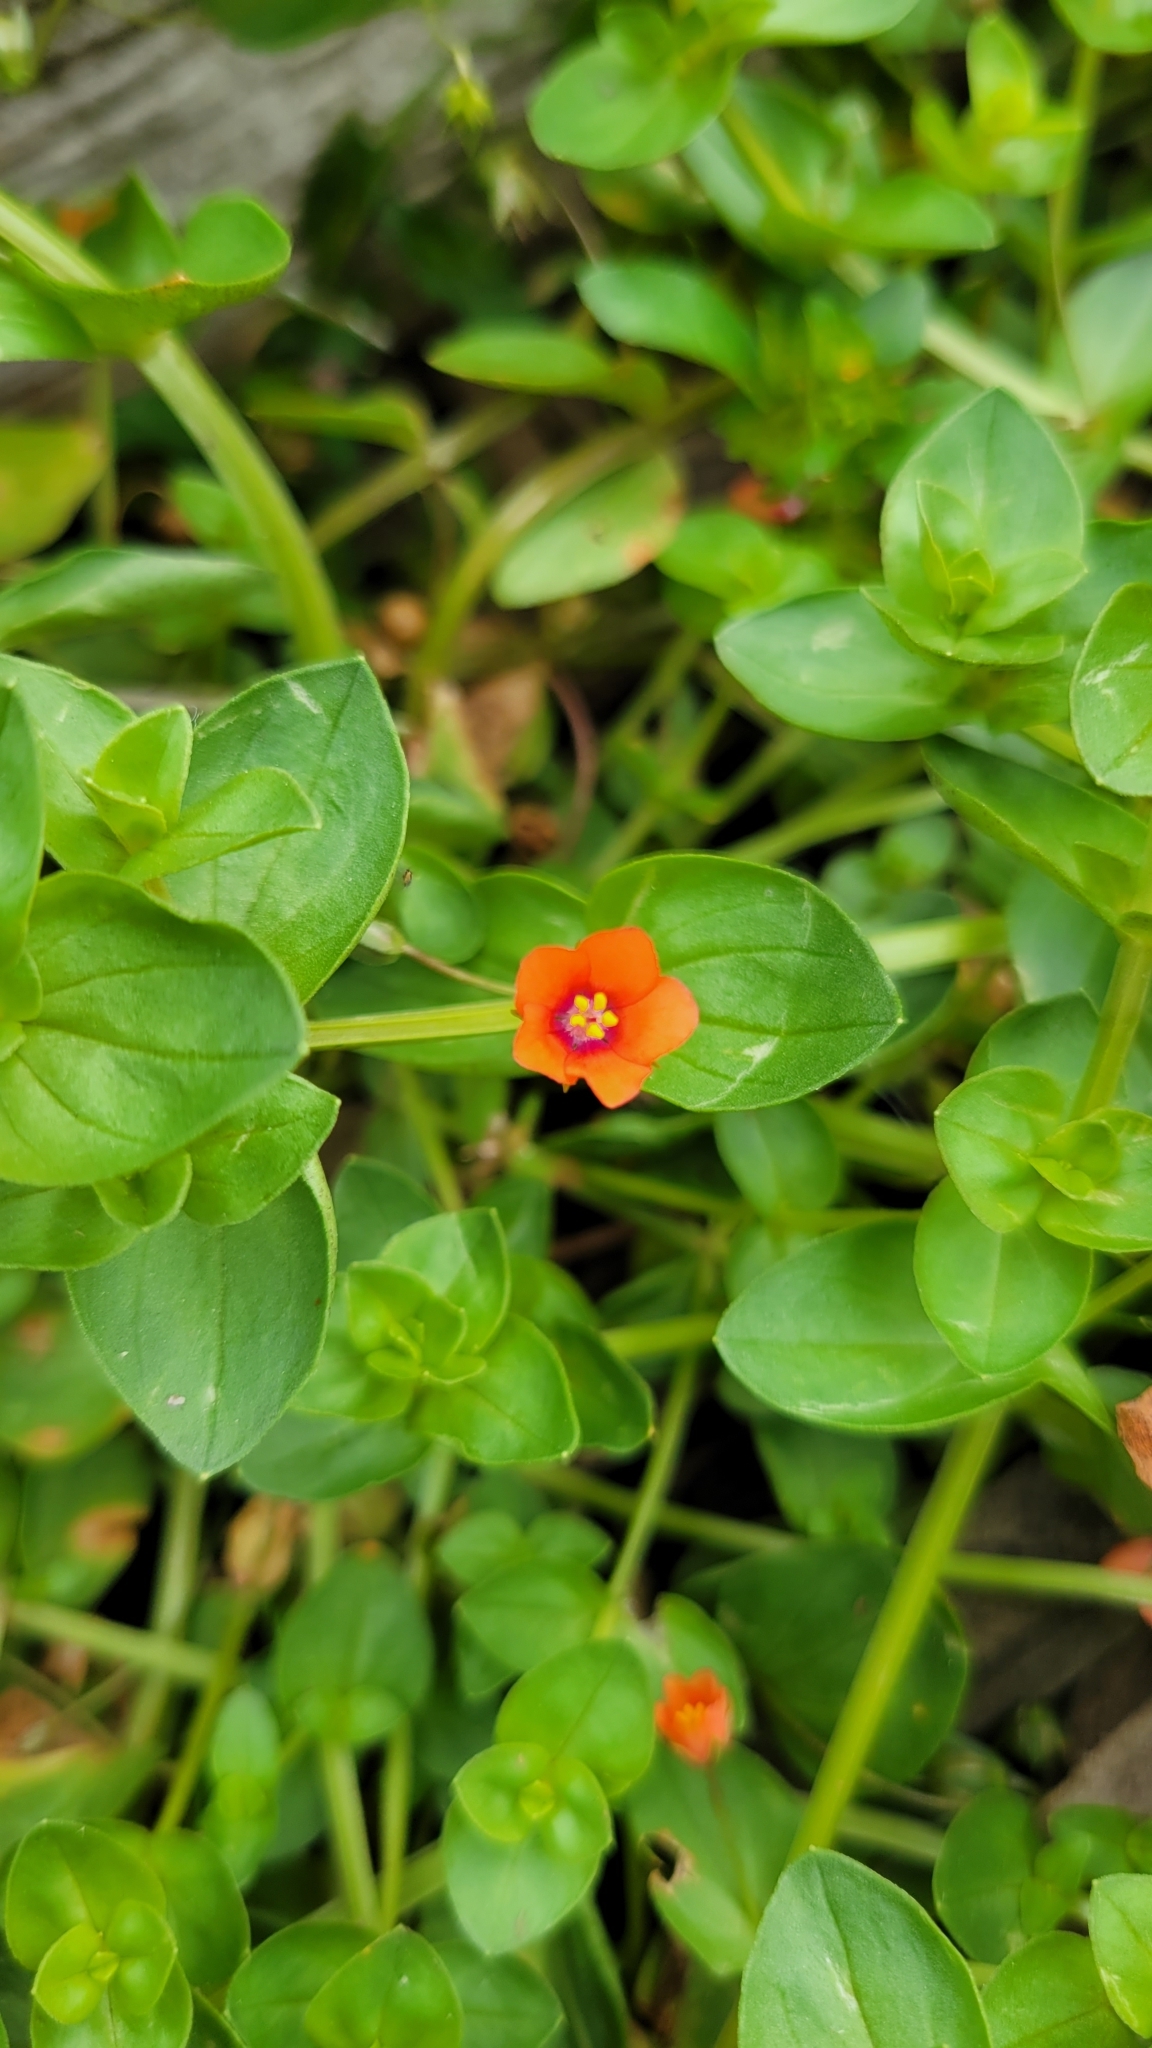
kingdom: Plantae
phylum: Tracheophyta
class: Magnoliopsida
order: Ericales
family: Primulaceae
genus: Lysimachia
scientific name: Lysimachia arvensis
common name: Scarlet pimpernel
